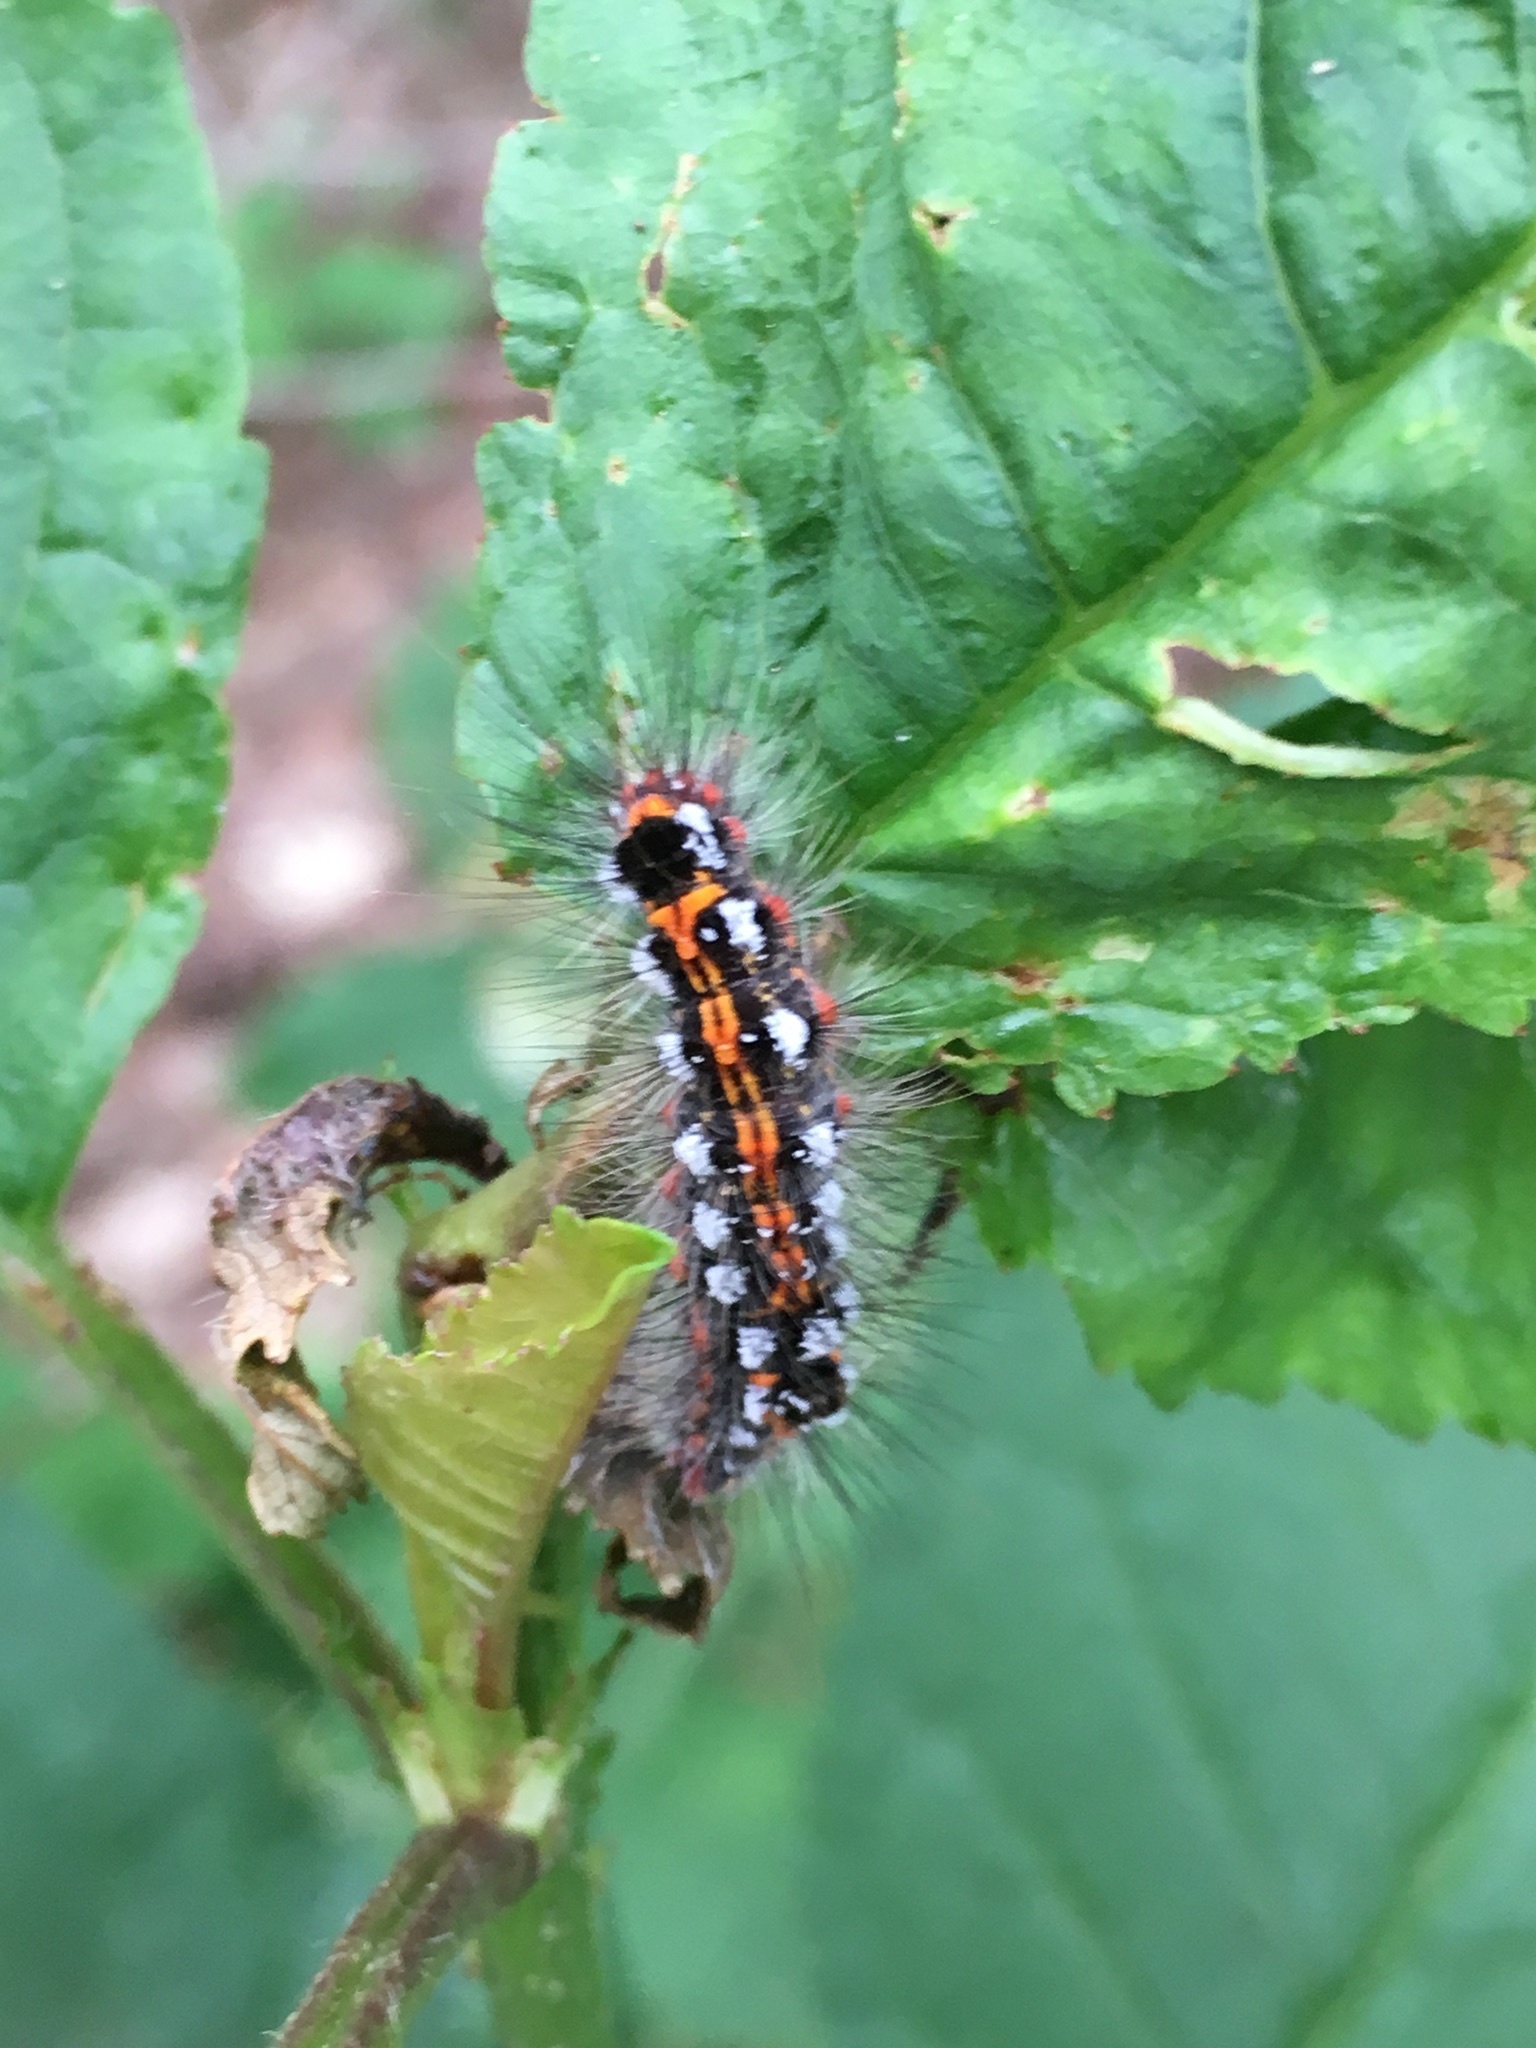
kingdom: Animalia
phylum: Arthropoda
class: Insecta
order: Lepidoptera
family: Erebidae
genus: Sphrageidus
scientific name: Sphrageidus similis
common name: Yellow-tail
